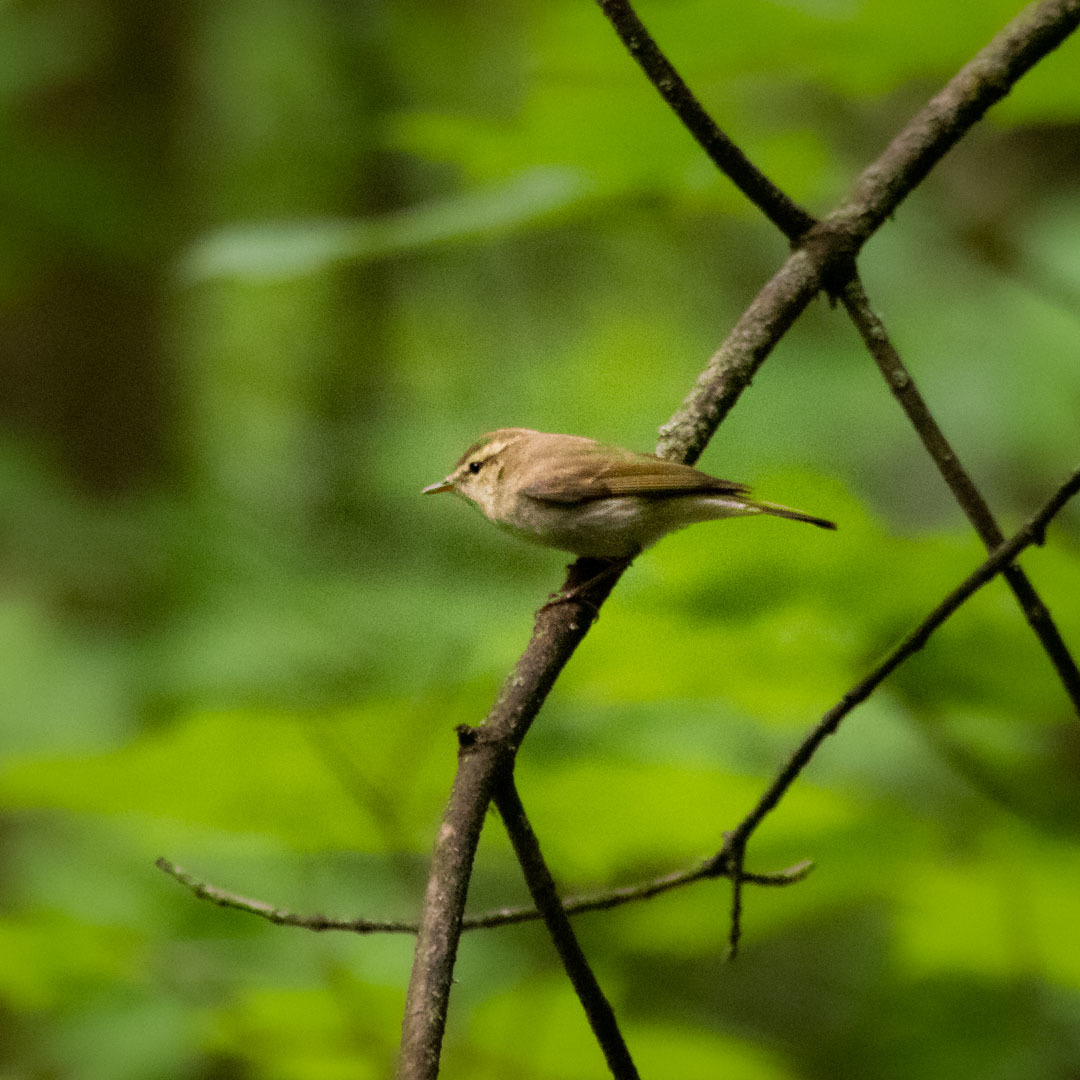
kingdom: Animalia
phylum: Chordata
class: Aves
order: Passeriformes
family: Phylloscopidae
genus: Phylloscopus
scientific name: Phylloscopus trochiloides
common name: Greenish warbler
